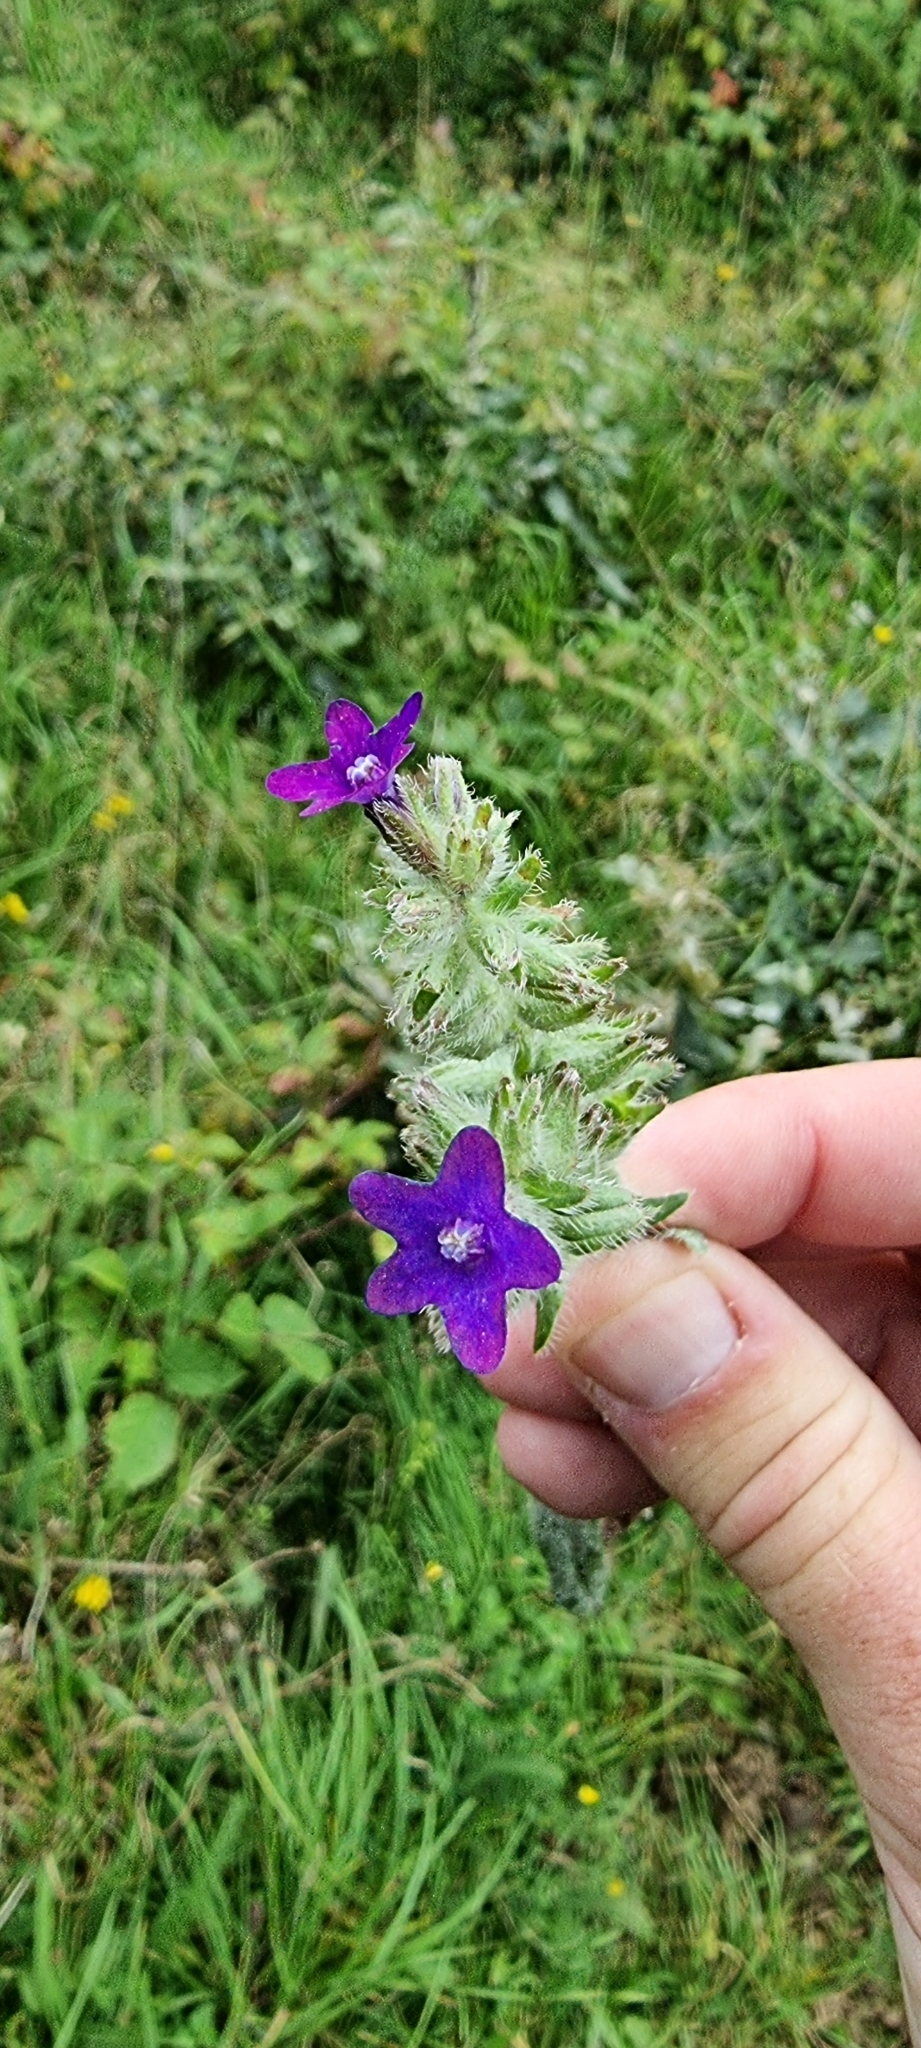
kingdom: Plantae
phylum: Tracheophyta
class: Magnoliopsida
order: Boraginales
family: Boraginaceae
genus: Anchusa
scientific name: Anchusa officinalis
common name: Alkanet
